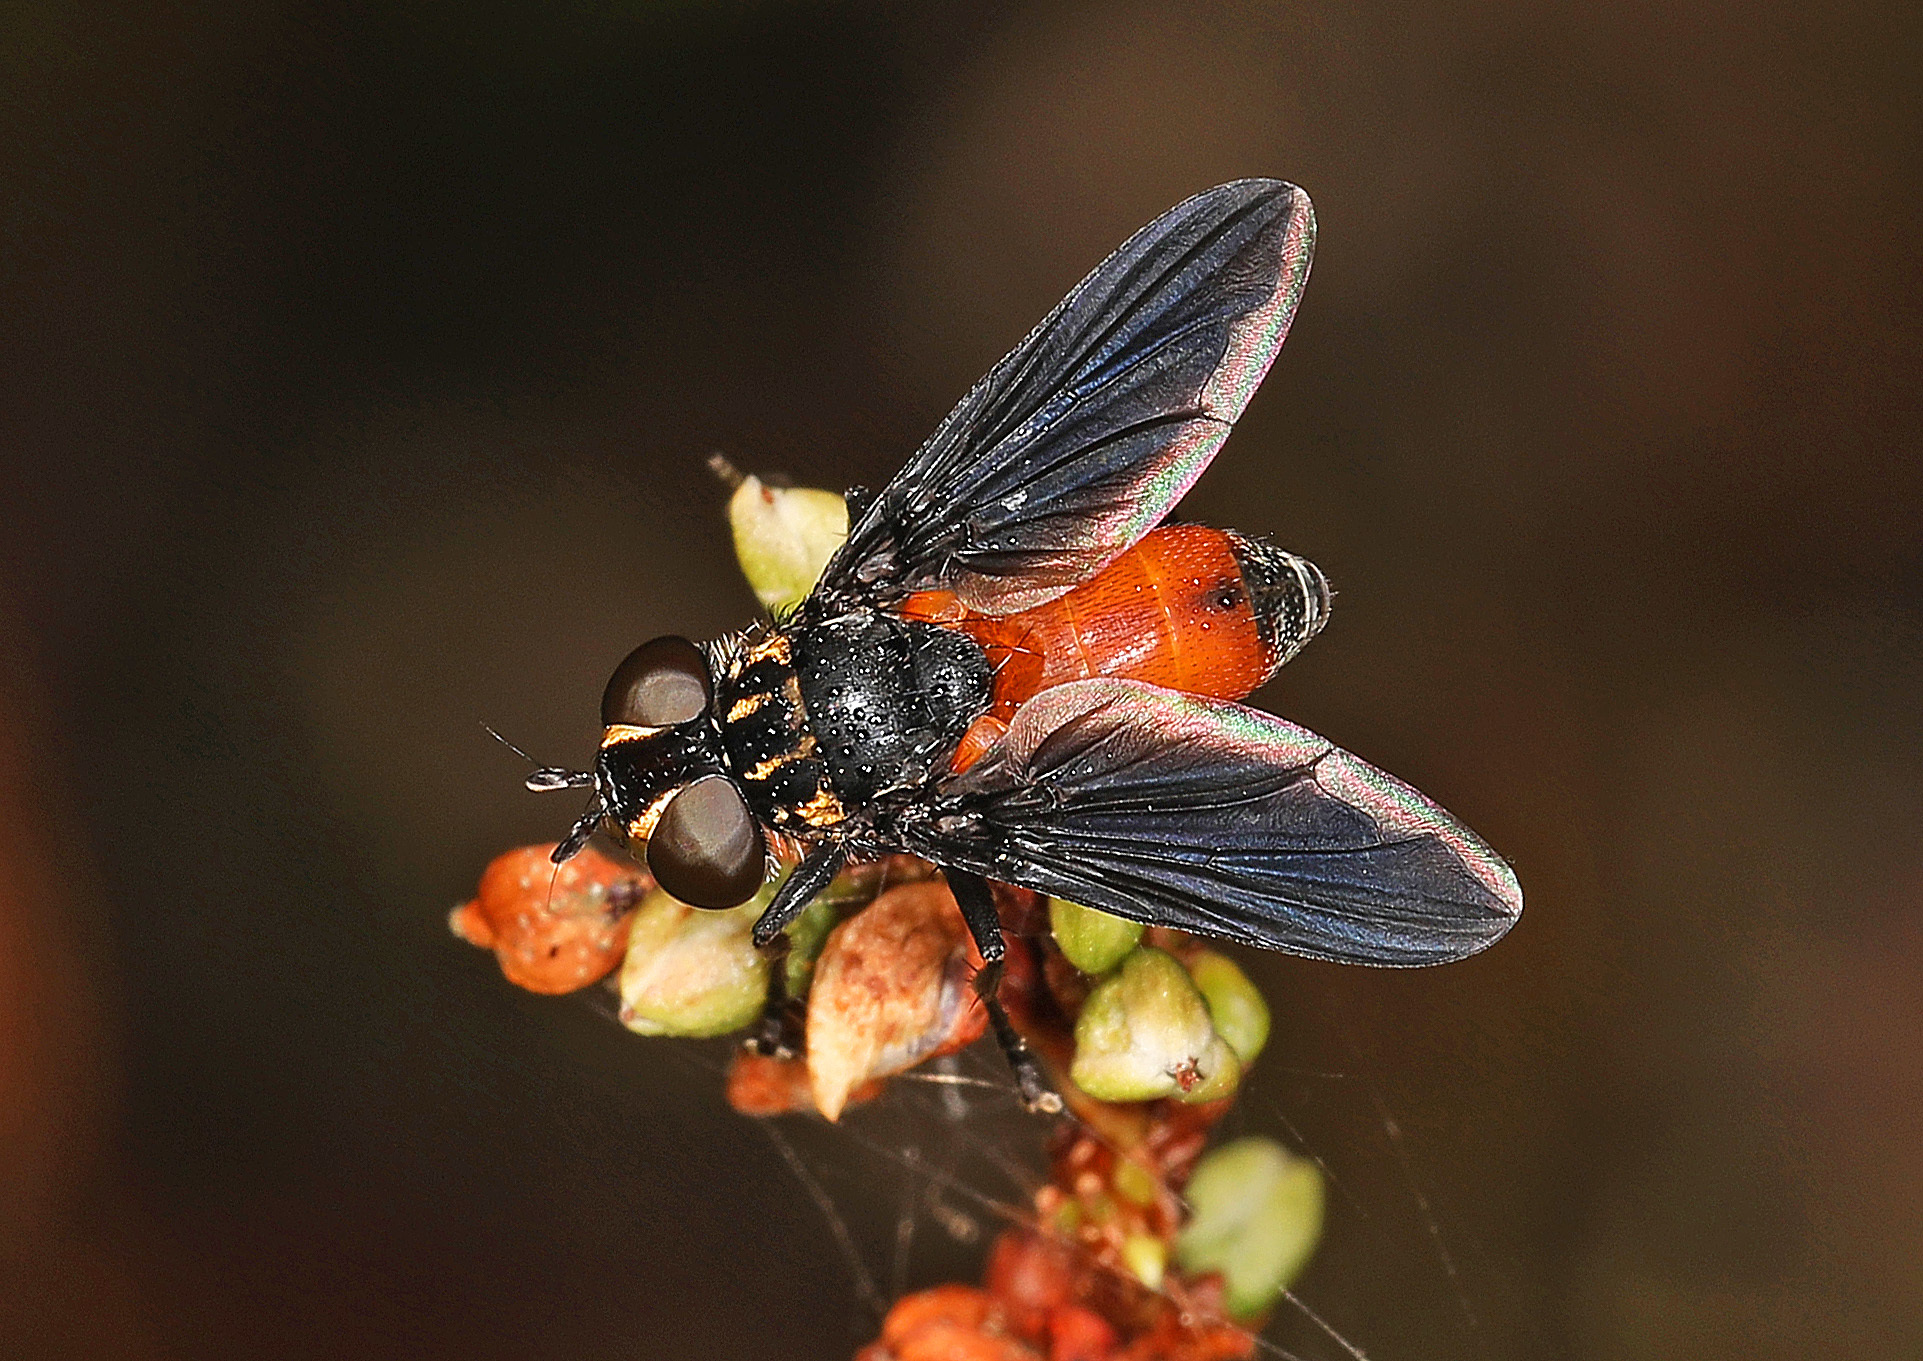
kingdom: Animalia
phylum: Arthropoda
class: Insecta
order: Diptera
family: Tachinidae
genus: Trichopoda
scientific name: Trichopoda pennipes
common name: Tachinid fly
